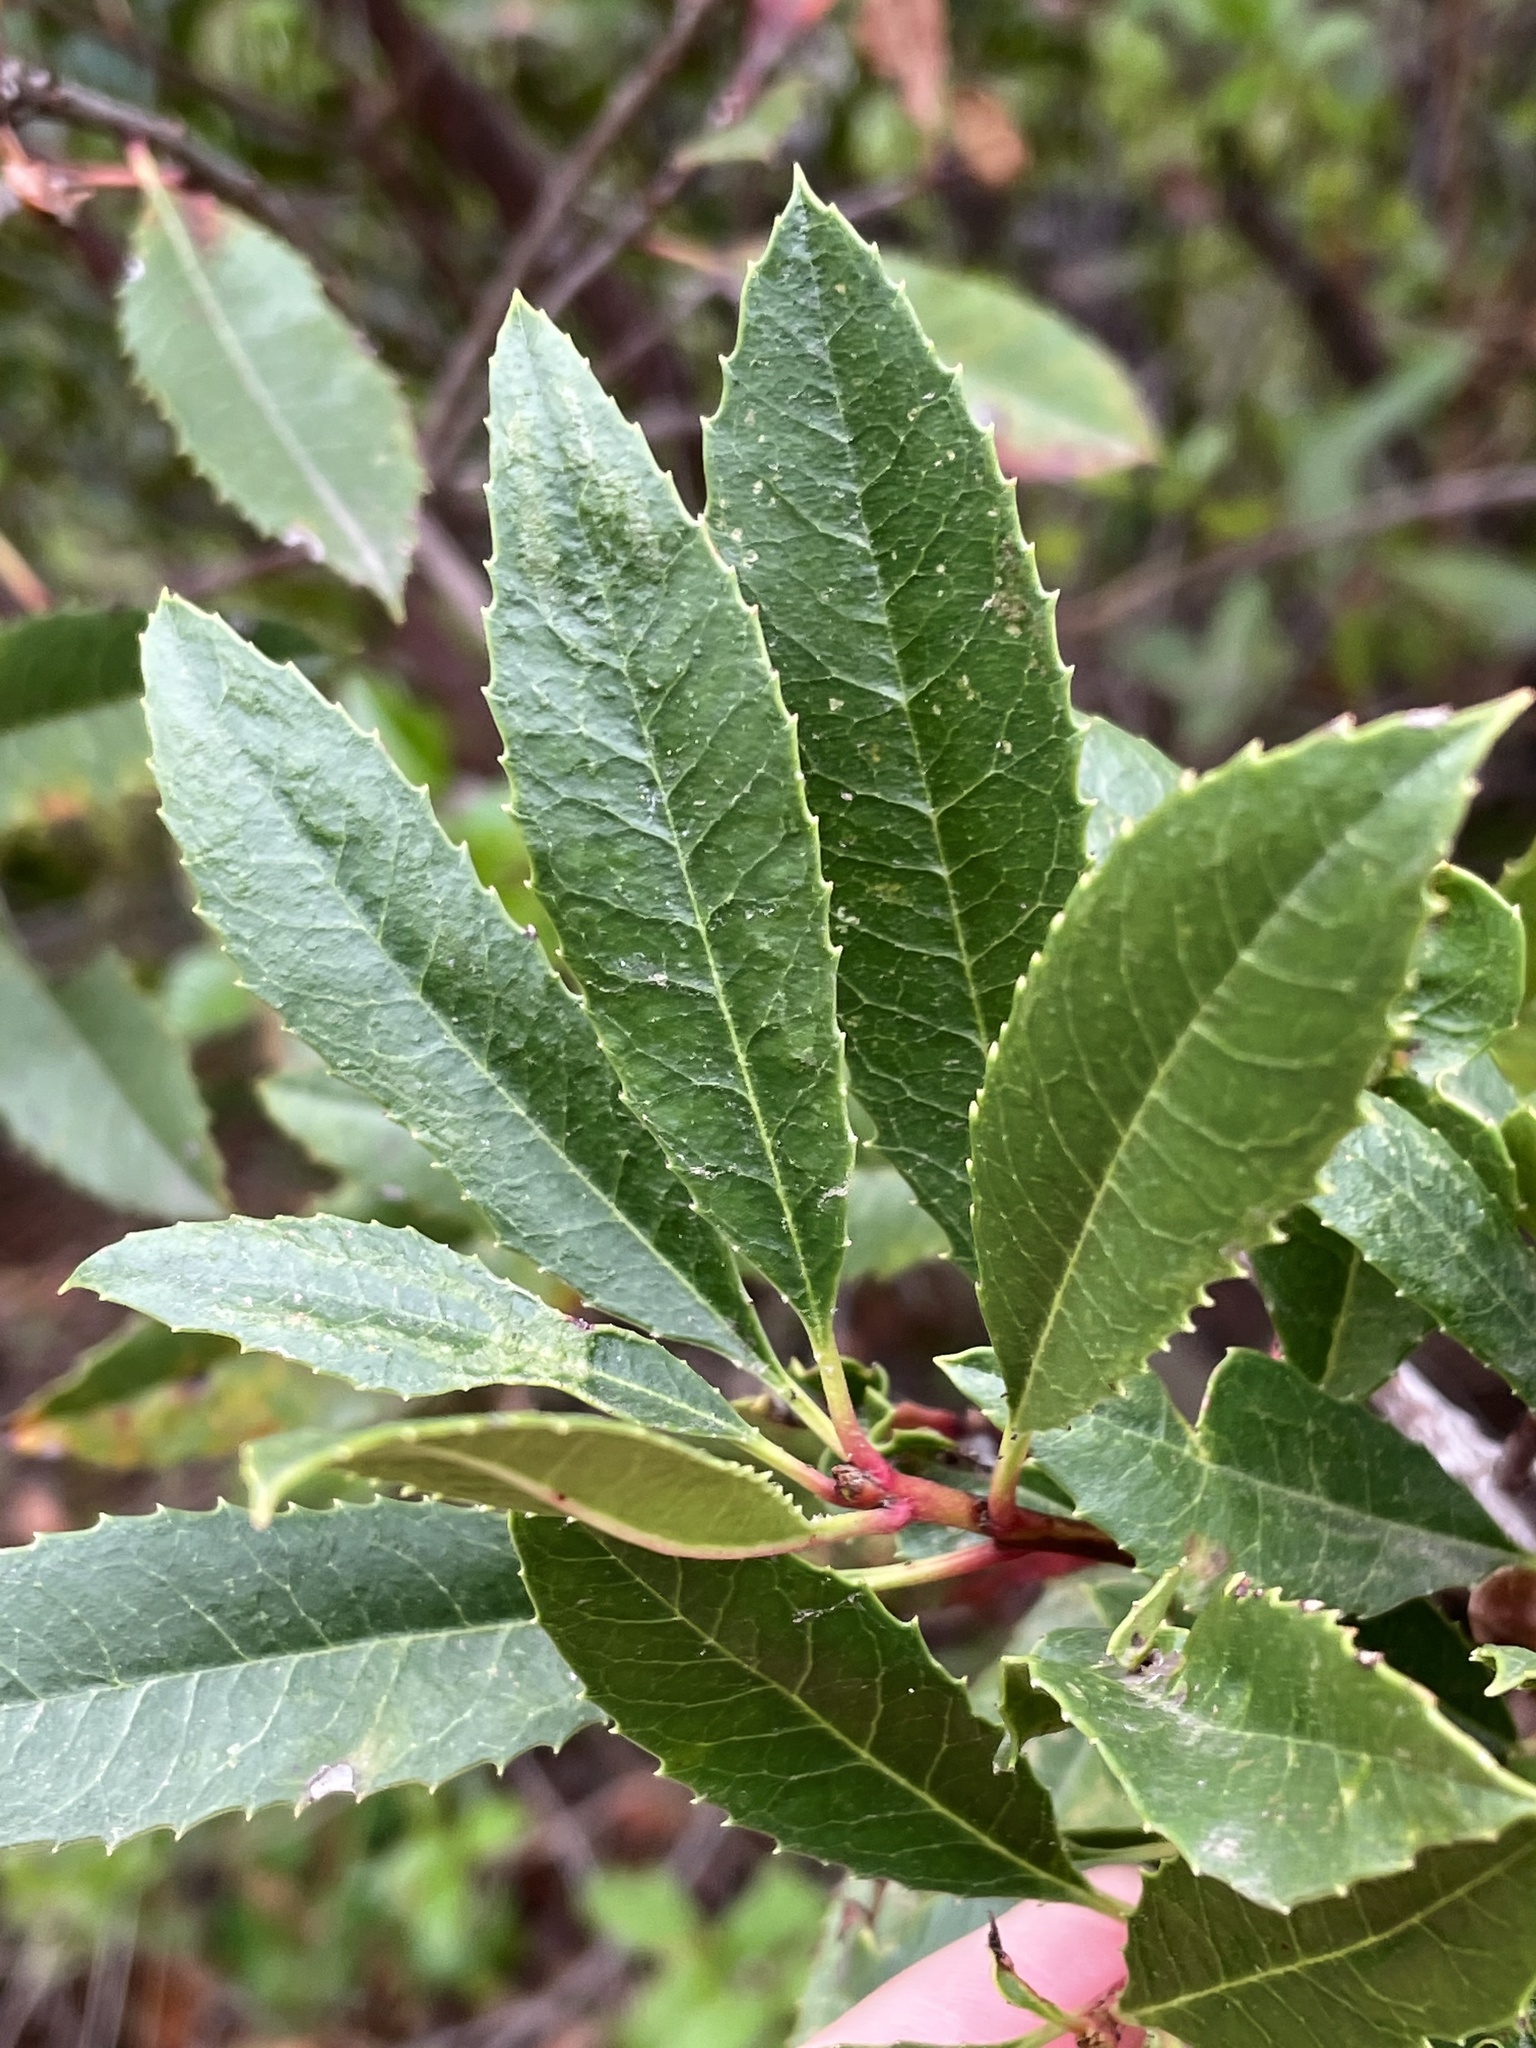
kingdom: Plantae
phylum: Tracheophyta
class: Magnoliopsida
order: Rosales
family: Rosaceae
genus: Heteromeles
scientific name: Heteromeles arbutifolia
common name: California-holly
